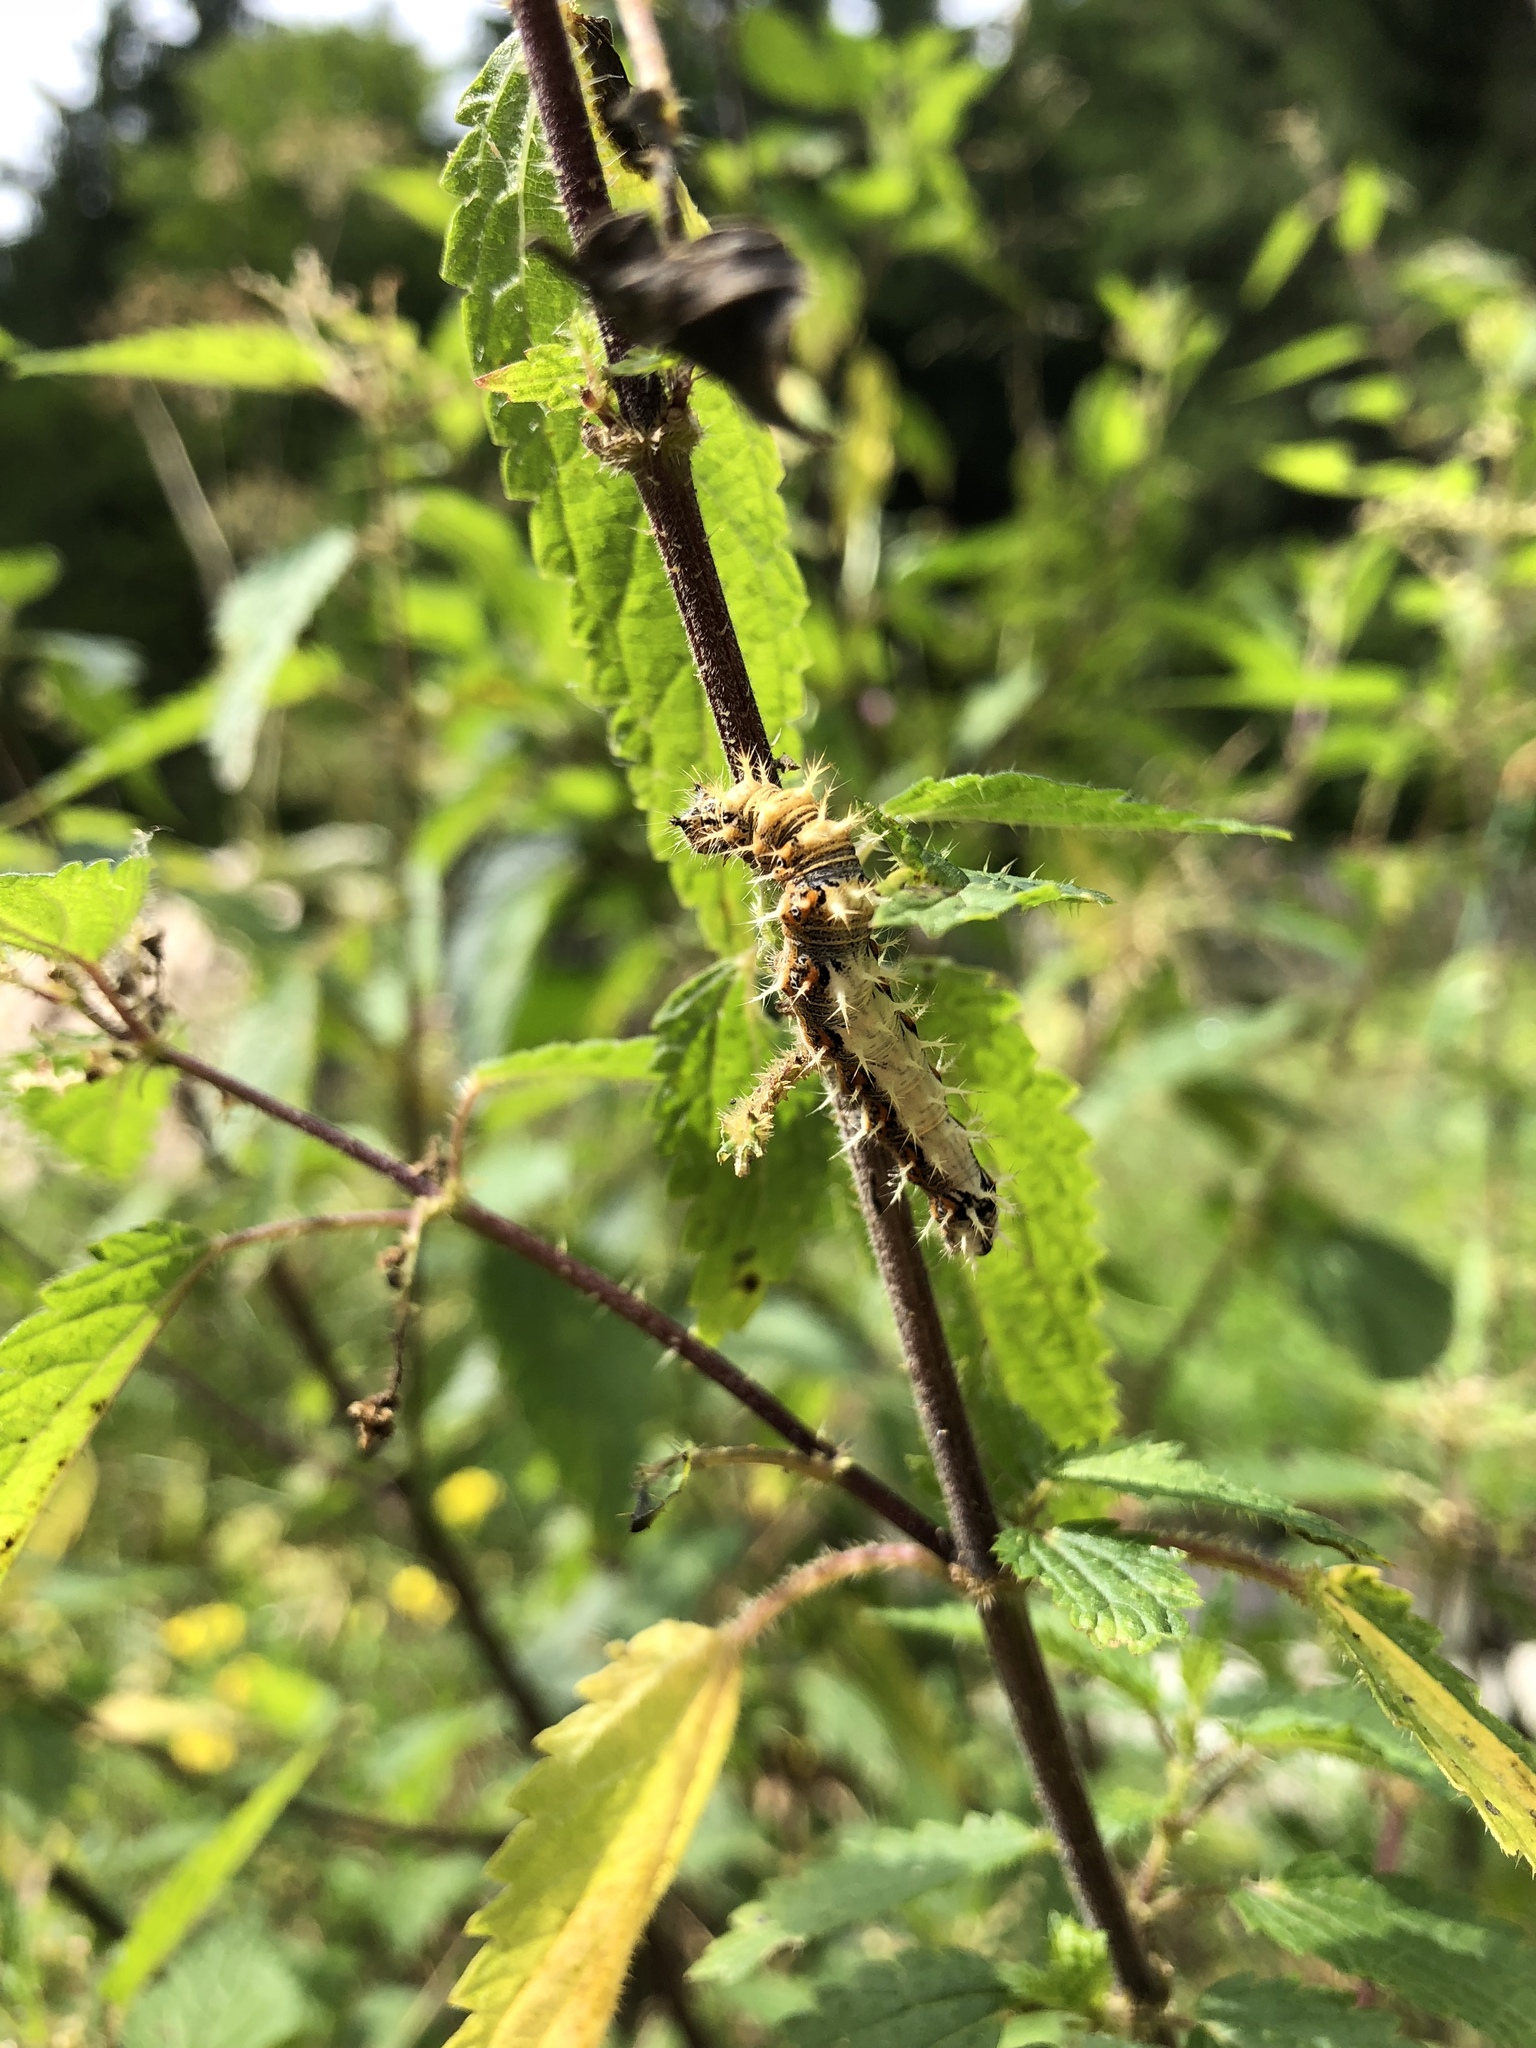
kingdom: Animalia
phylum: Arthropoda
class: Insecta
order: Lepidoptera
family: Nymphalidae
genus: Polygonia
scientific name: Polygonia c-album
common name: Comma
